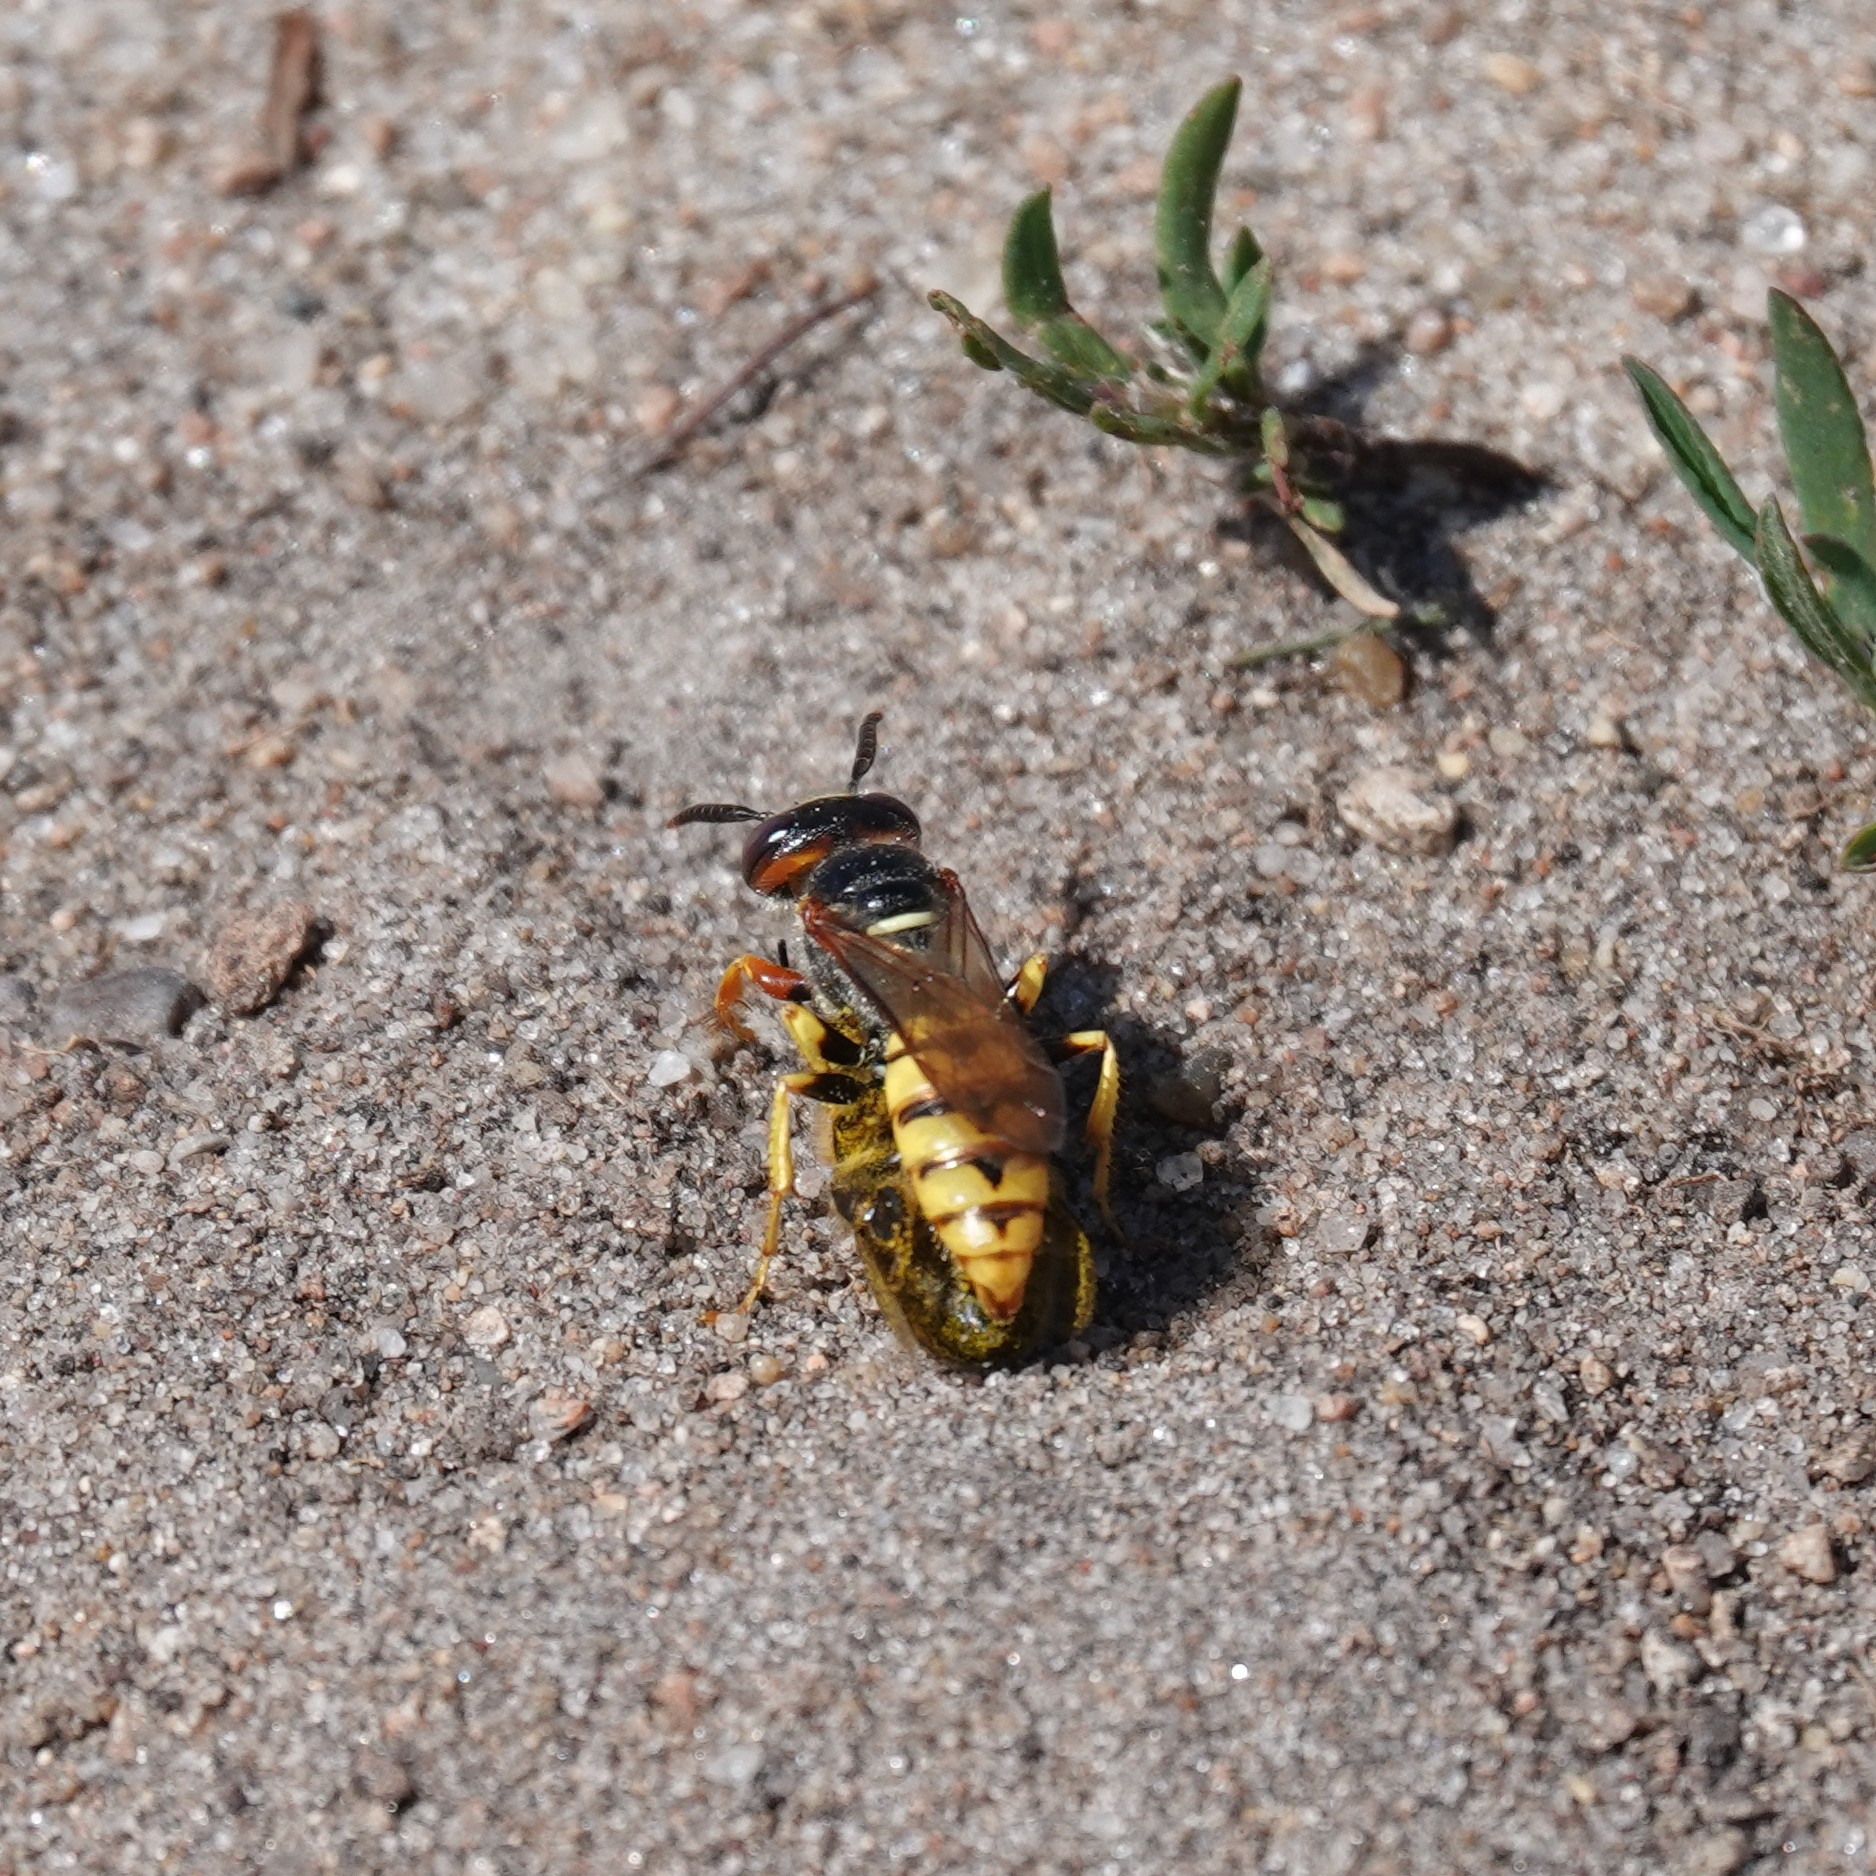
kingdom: Animalia
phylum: Arthropoda
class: Insecta
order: Hymenoptera
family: Crabronidae
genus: Philanthus
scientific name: Philanthus triangulum
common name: Bee wolf
